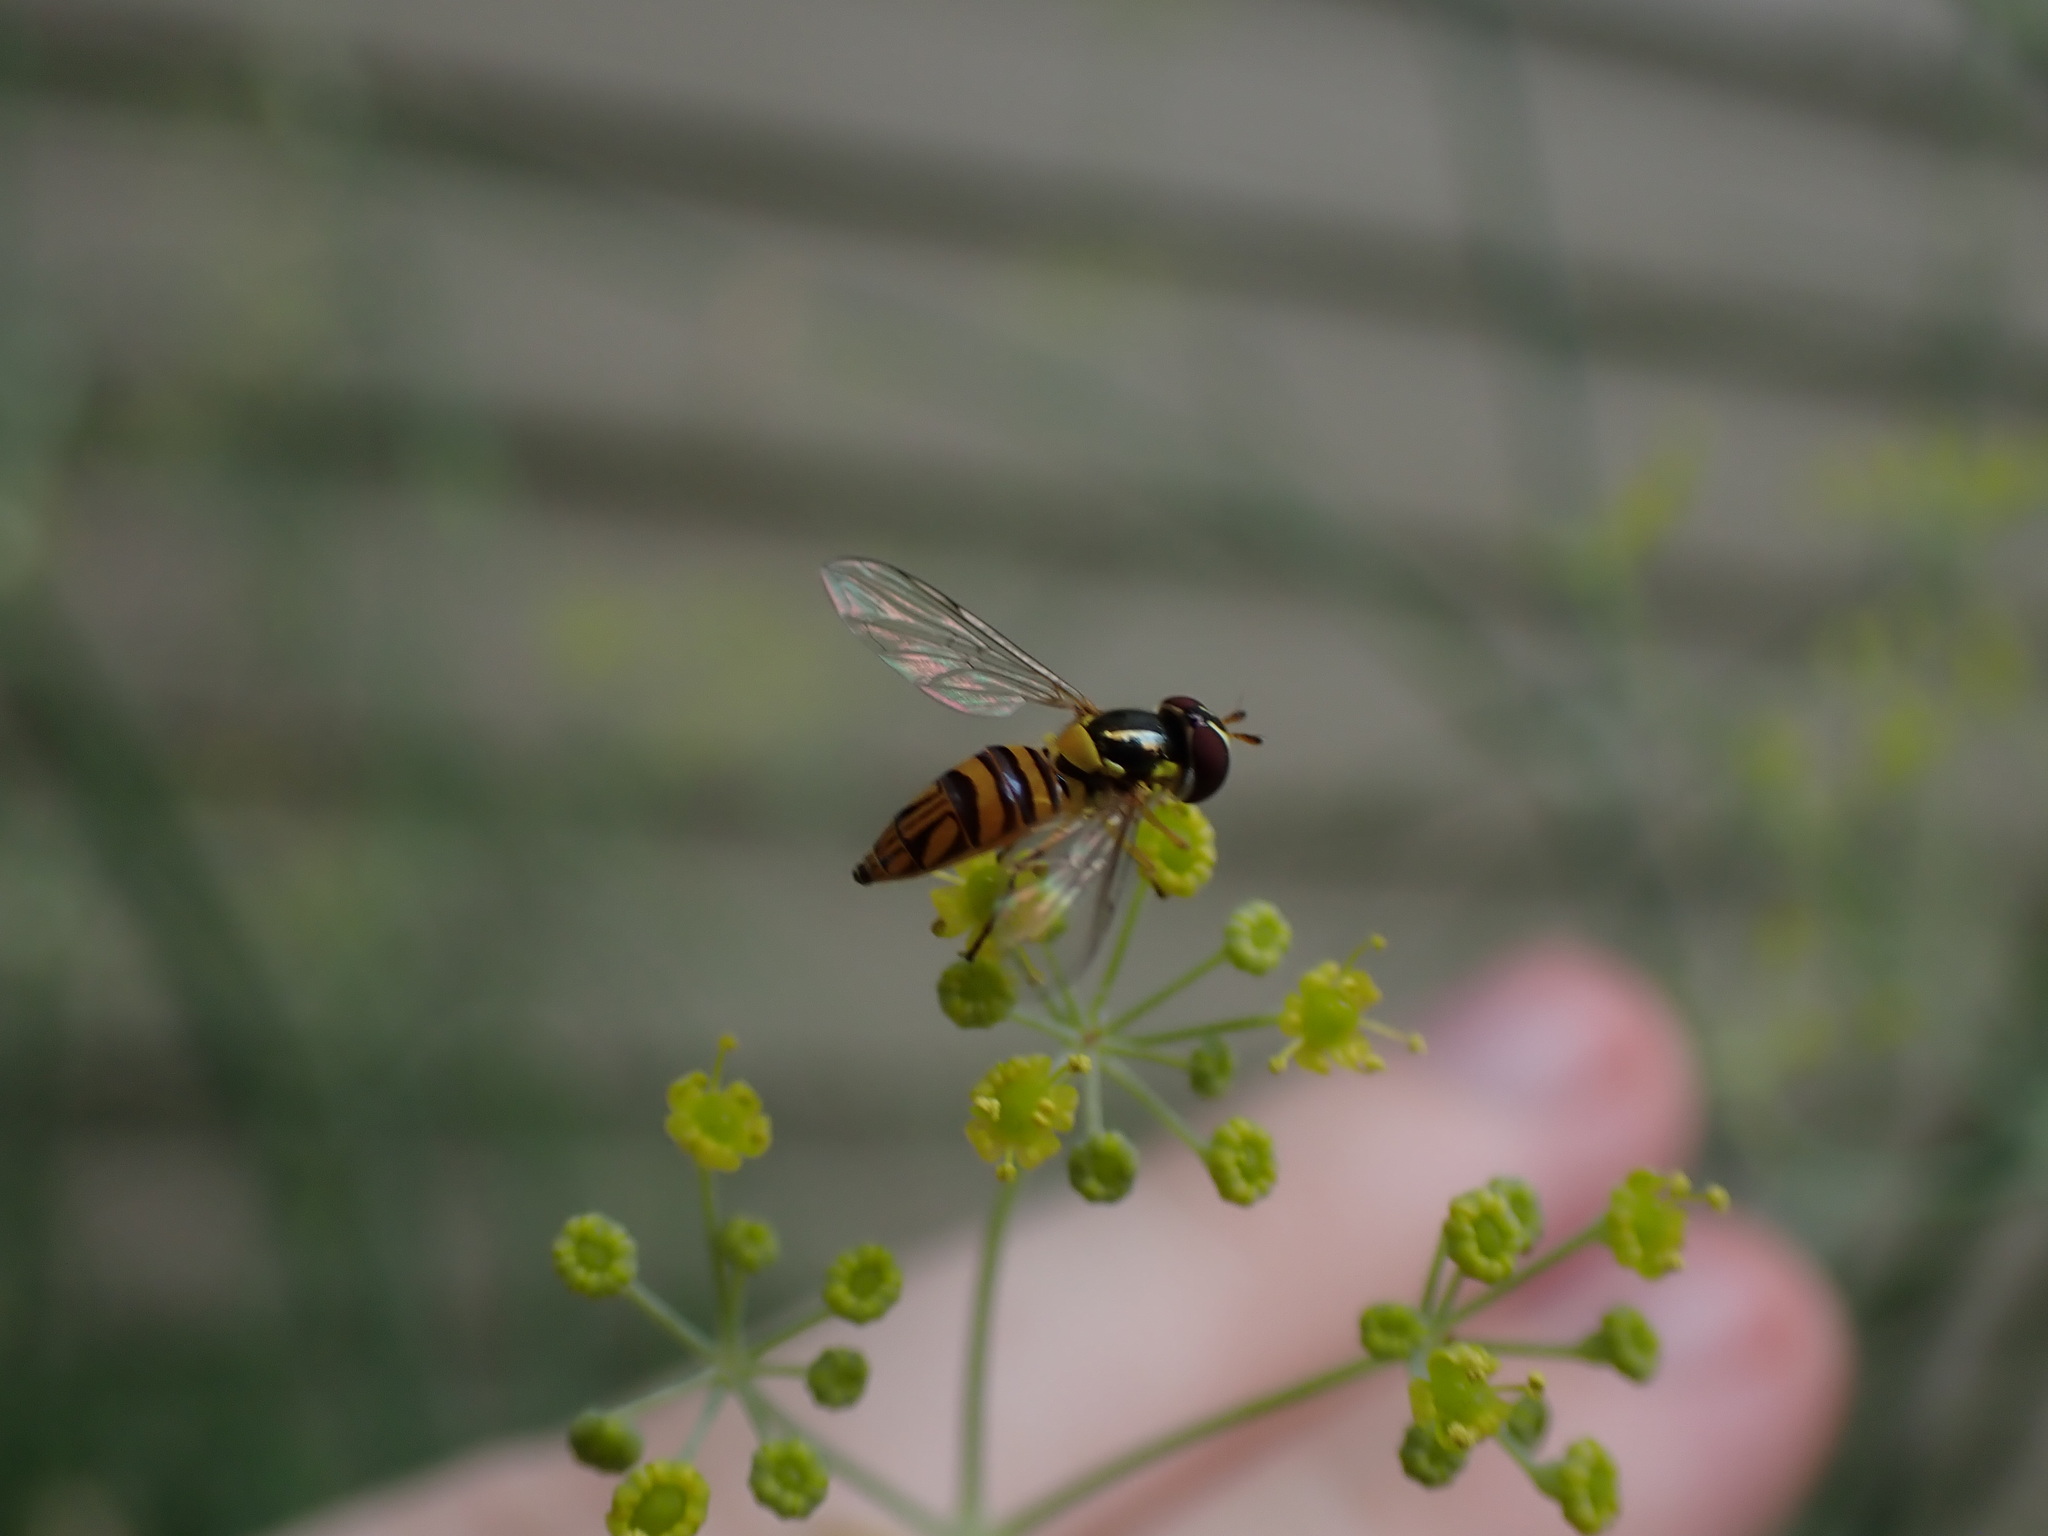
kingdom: Animalia
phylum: Arthropoda
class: Insecta
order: Diptera
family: Syrphidae
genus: Allograpta
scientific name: Allograpta obliqua
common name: Common oblique syrphid
